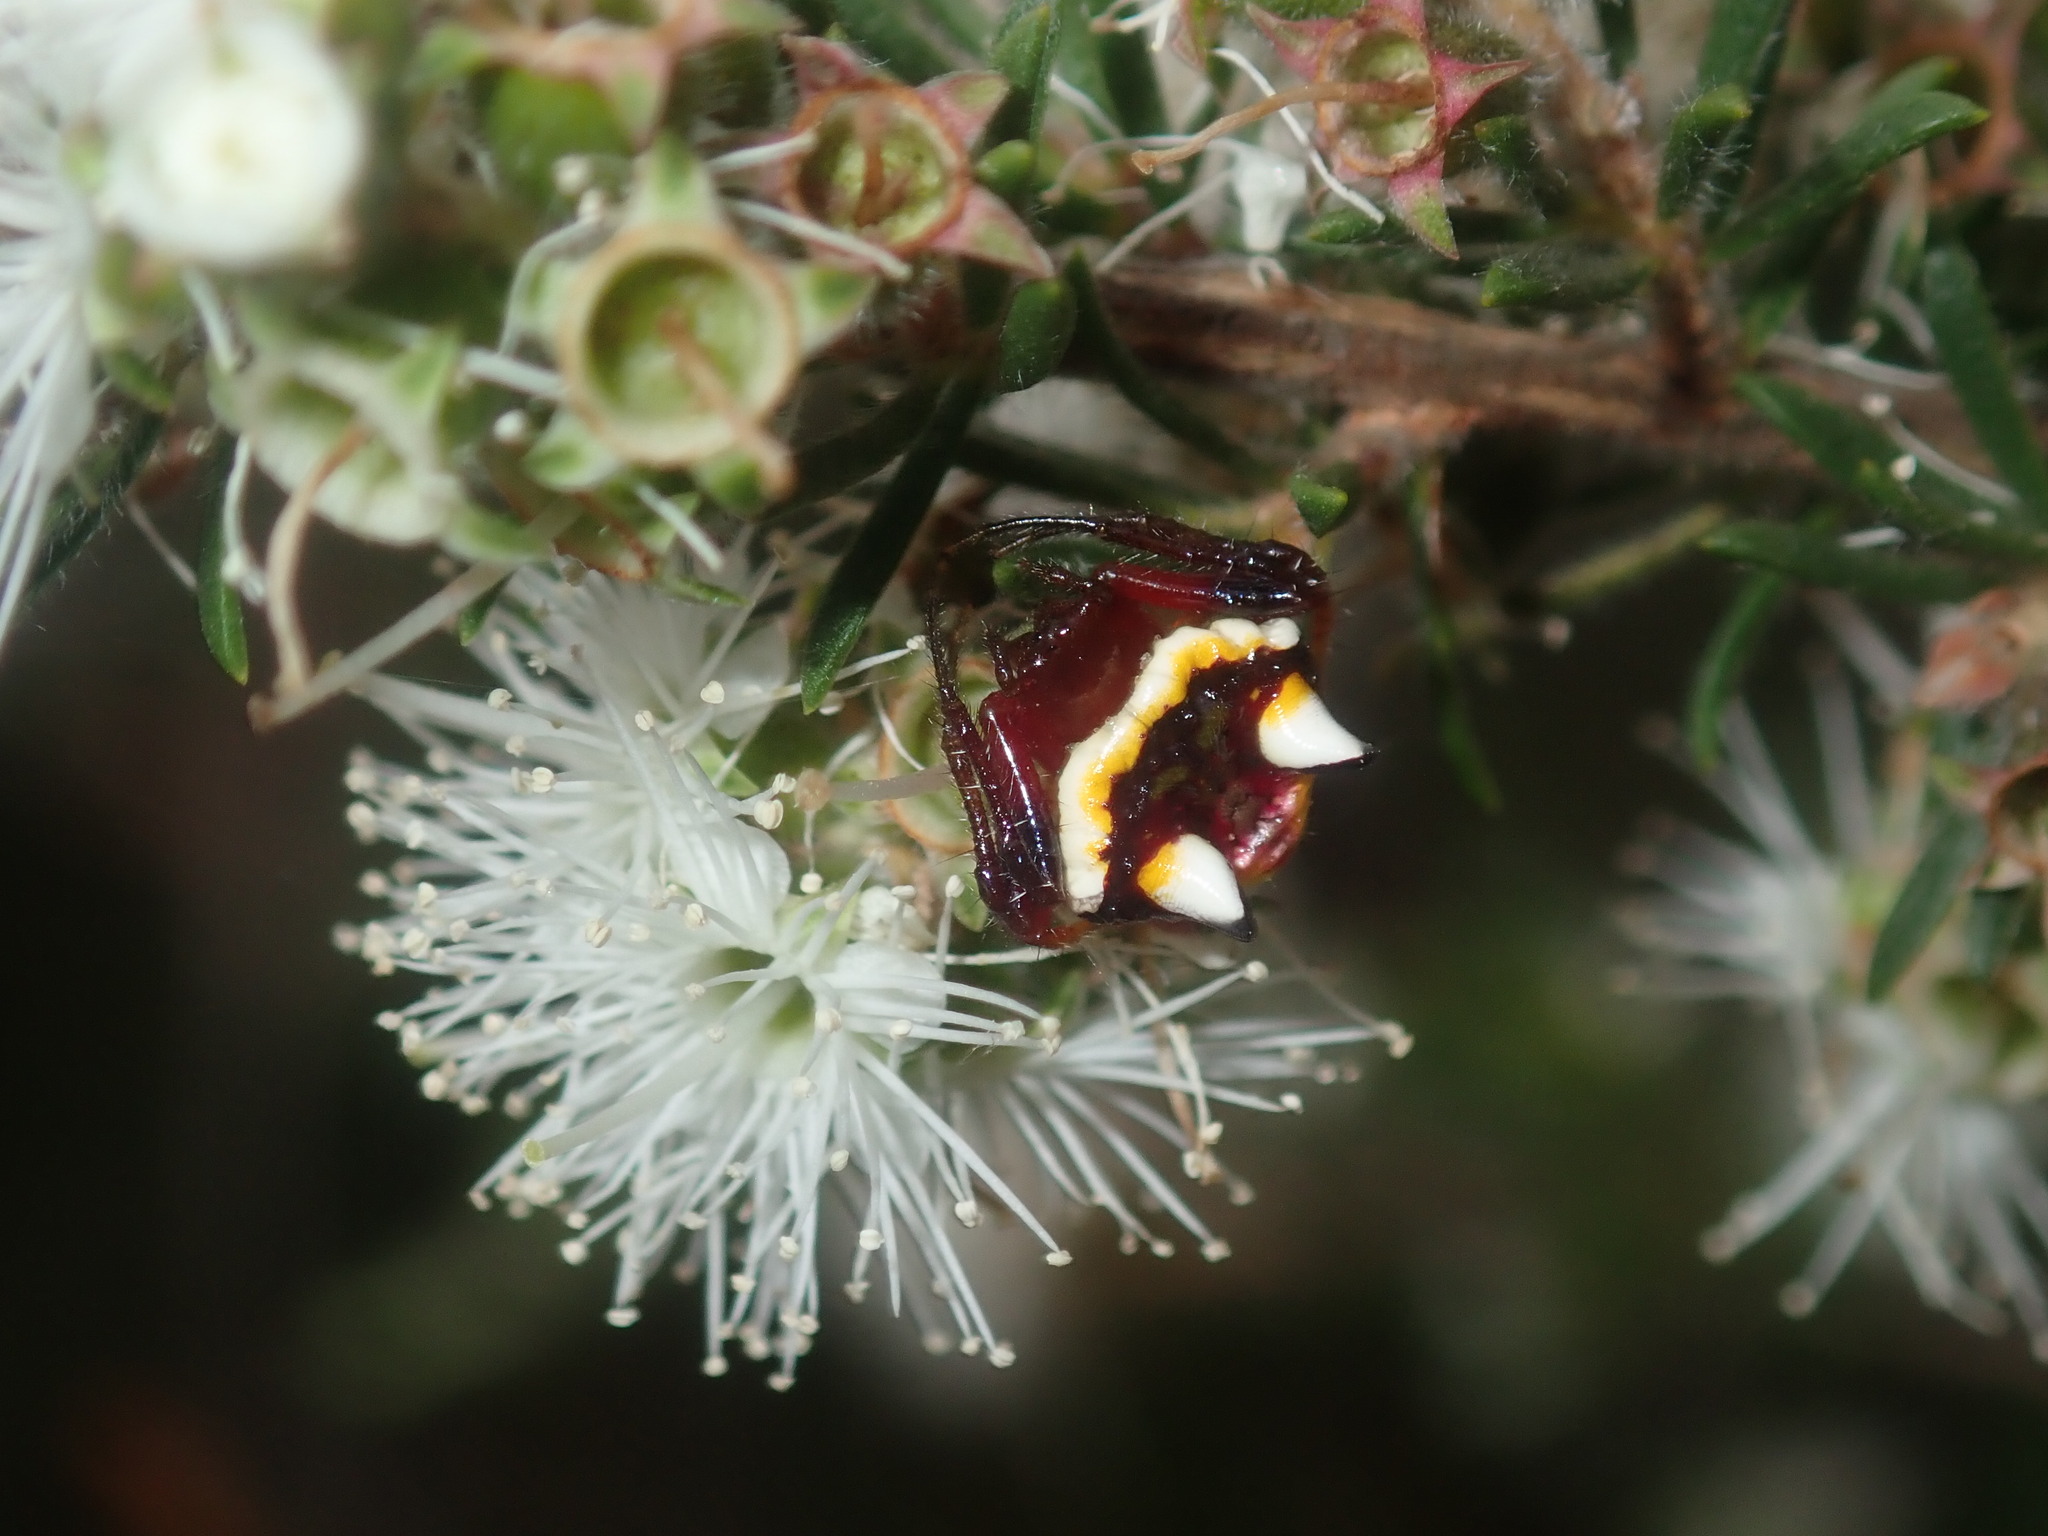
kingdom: Animalia
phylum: Arthropoda
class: Arachnida
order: Araneae
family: Araneidae
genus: Poecilopachys
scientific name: Poecilopachys australasia
